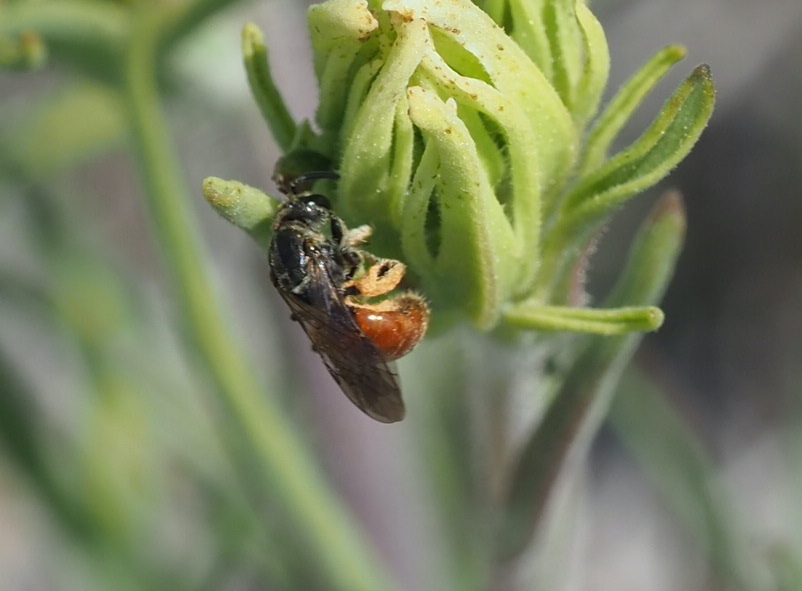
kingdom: Animalia
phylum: Arthropoda
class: Insecta
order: Hymenoptera
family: Halictidae
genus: Lasioglossum
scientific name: Lasioglossum ovaliceps
